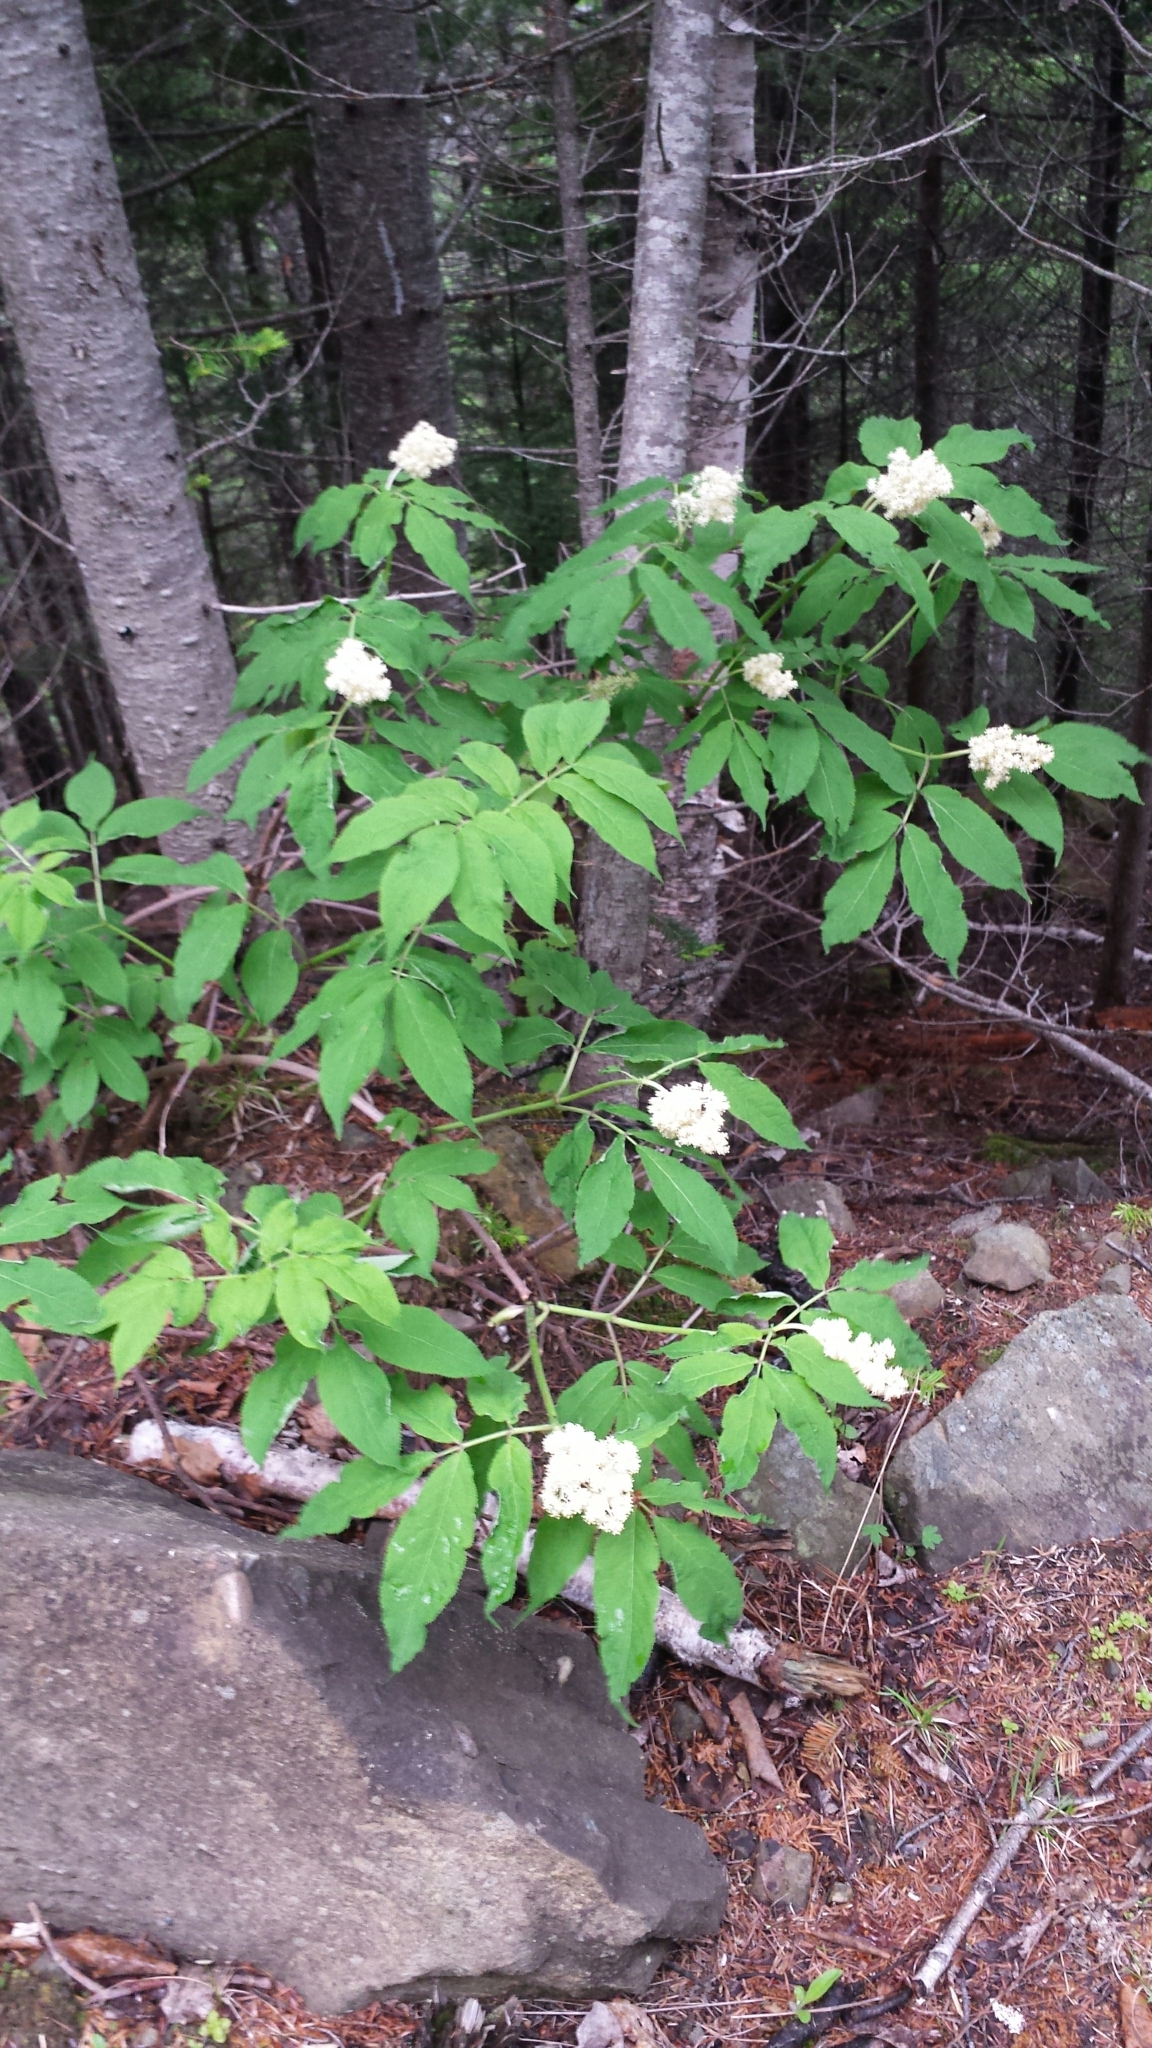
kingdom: Plantae
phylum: Tracheophyta
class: Magnoliopsida
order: Dipsacales
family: Viburnaceae
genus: Sambucus
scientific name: Sambucus racemosa
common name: Red-berried elder
